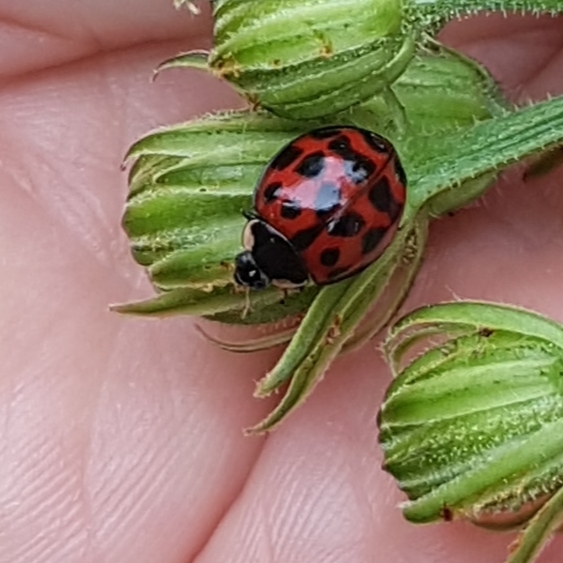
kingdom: Animalia
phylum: Arthropoda
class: Insecta
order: Coleoptera
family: Coccinellidae
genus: Harmonia
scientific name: Harmonia axyridis
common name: Harlequin ladybird
